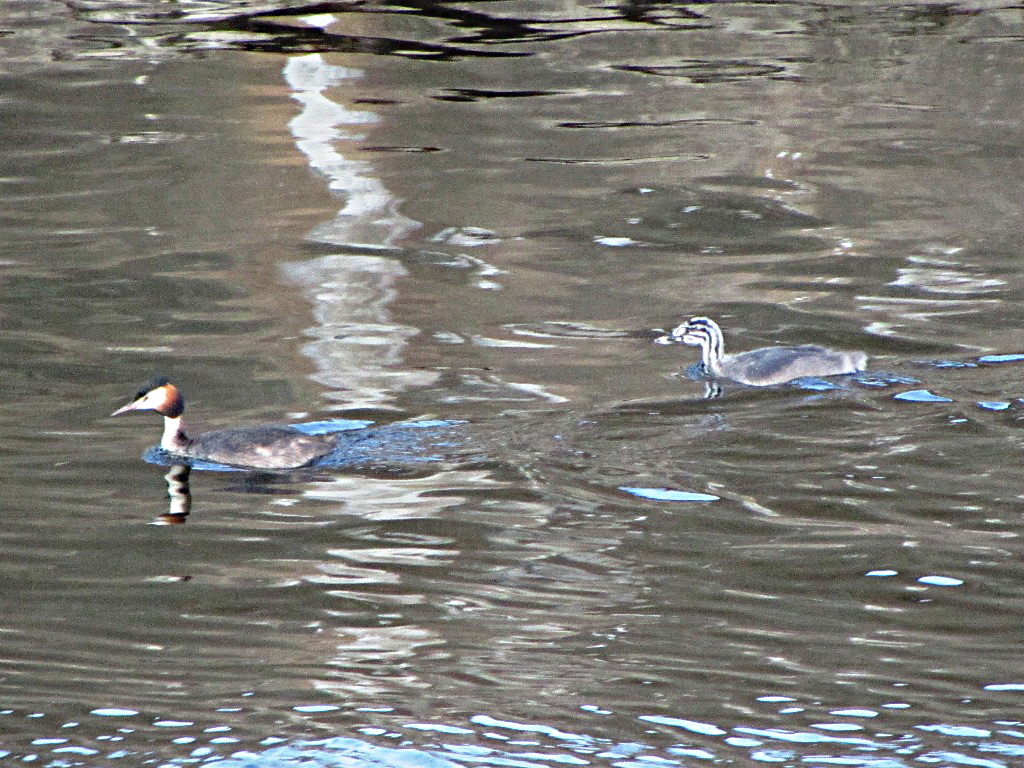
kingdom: Animalia
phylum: Chordata
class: Aves
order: Podicipediformes
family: Podicipedidae
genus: Podiceps
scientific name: Podiceps cristatus
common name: Great crested grebe
